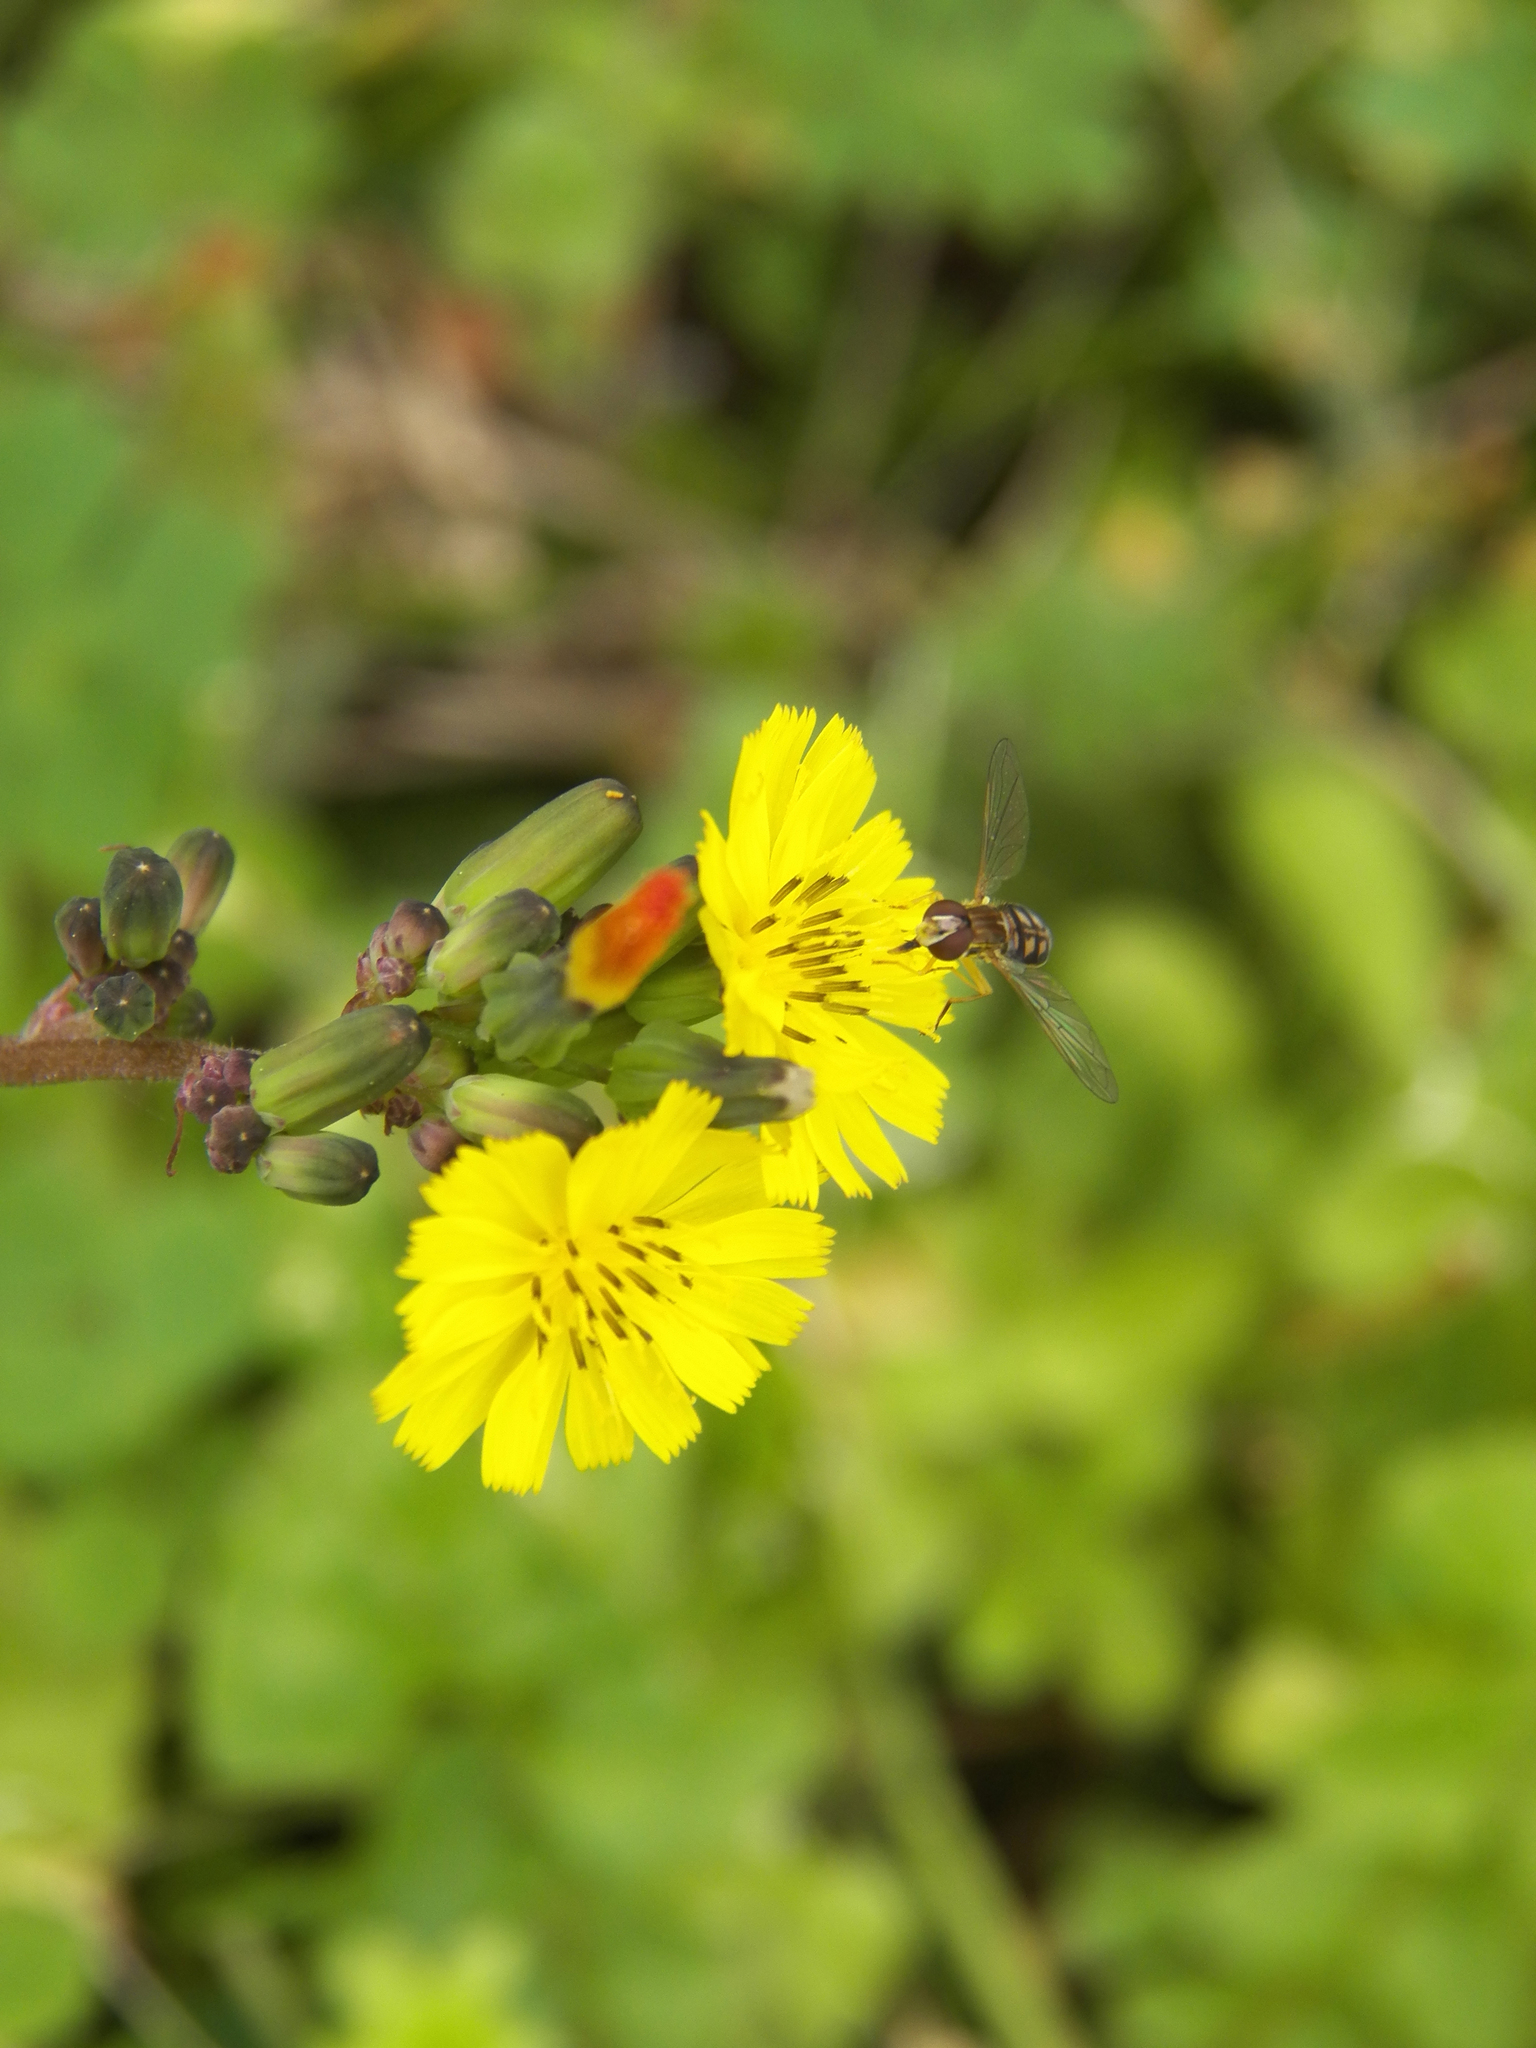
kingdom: Plantae
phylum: Tracheophyta
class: Magnoliopsida
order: Asterales
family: Asteraceae
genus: Youngia
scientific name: Youngia japonica
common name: Oriental false hawksbeard
